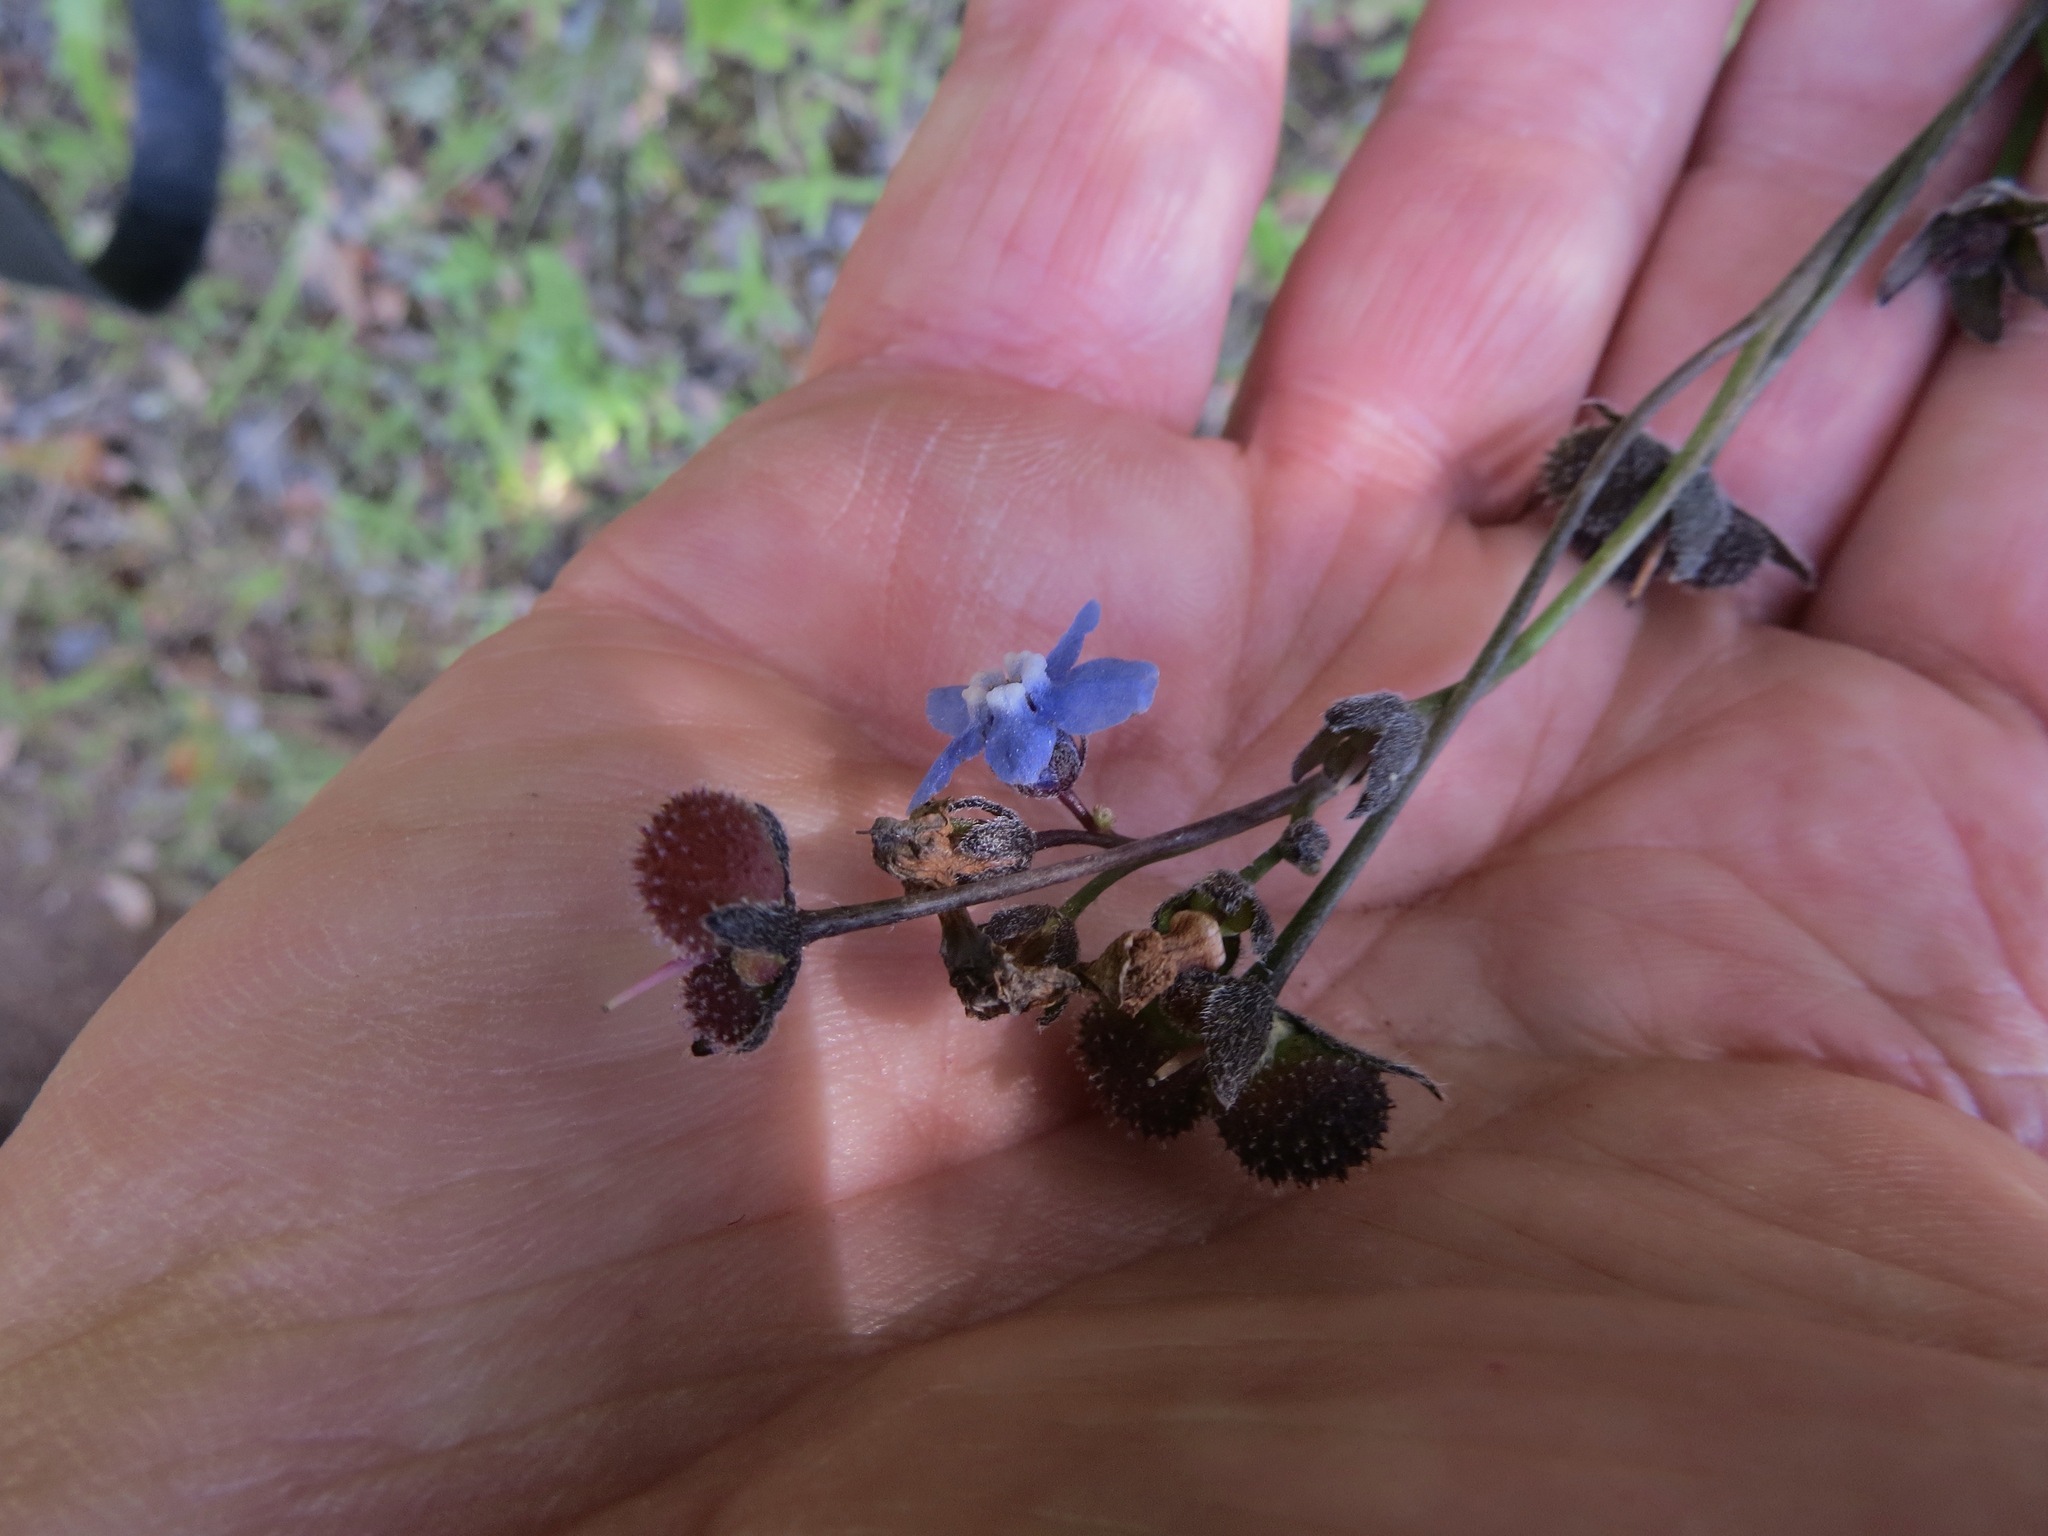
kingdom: Plantae
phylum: Tracheophyta
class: Magnoliopsida
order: Boraginales
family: Boraginaceae
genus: Adelinia
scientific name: Adelinia grande
